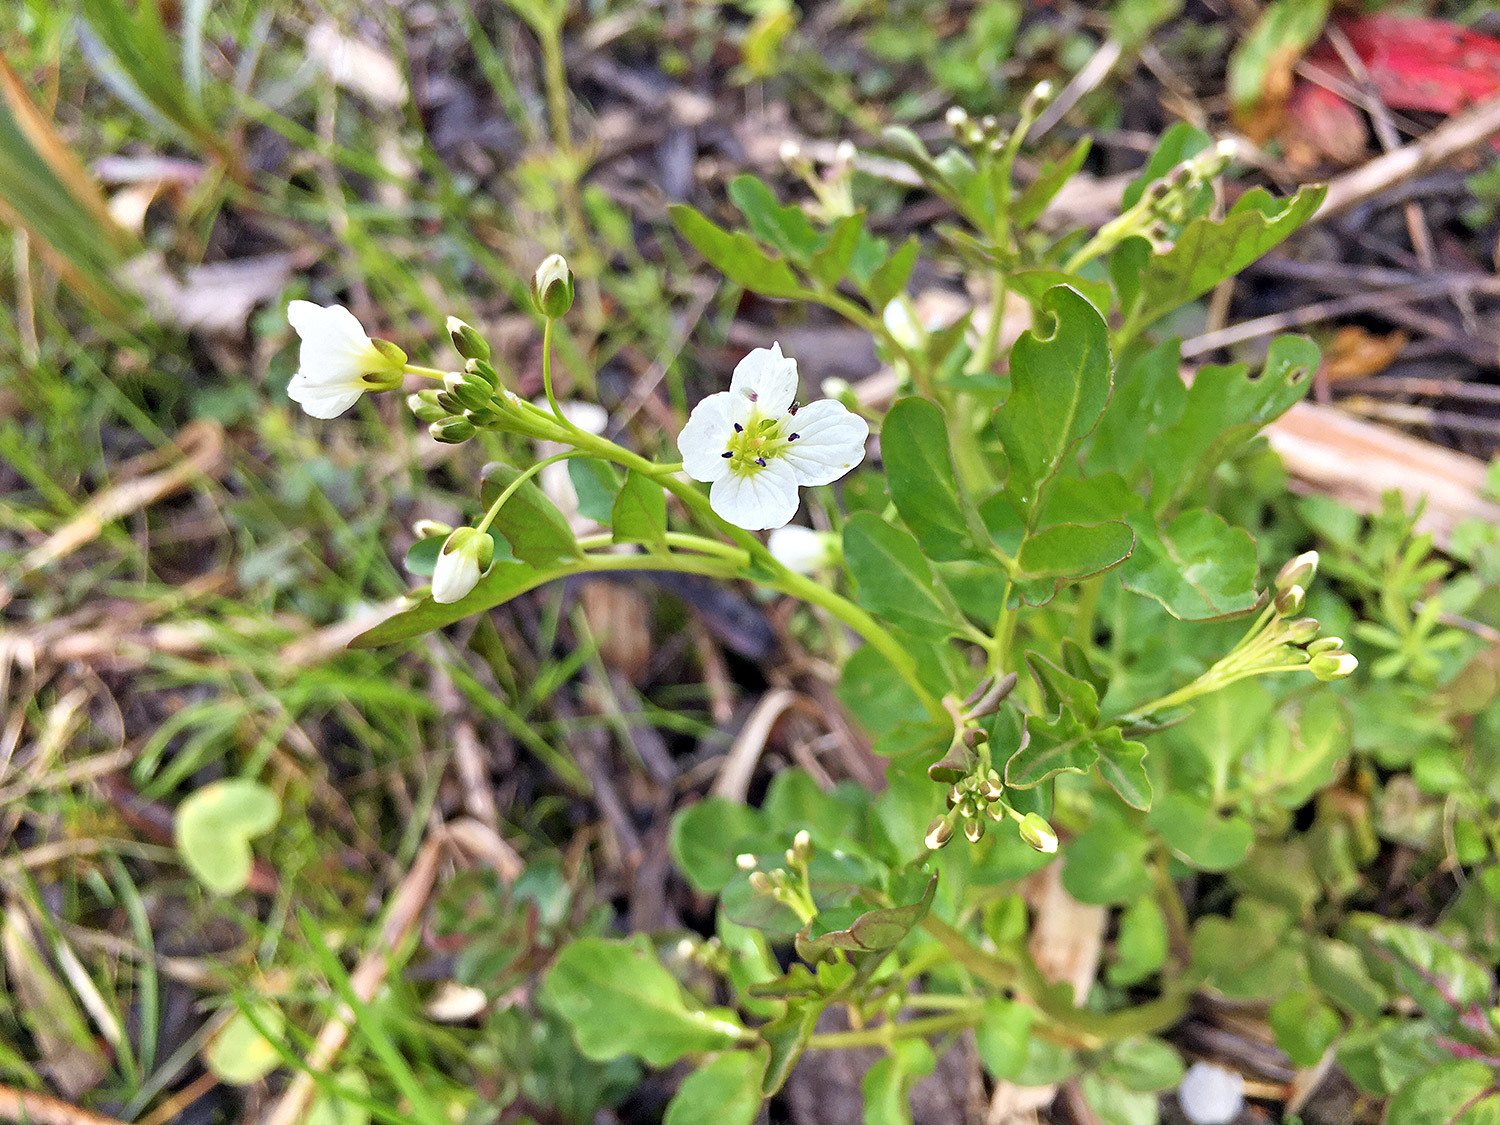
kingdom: Plantae
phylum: Tracheophyta
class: Magnoliopsida
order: Brassicales
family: Brassicaceae
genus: Cardamine
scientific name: Cardamine amara
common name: Large bitter-cress
